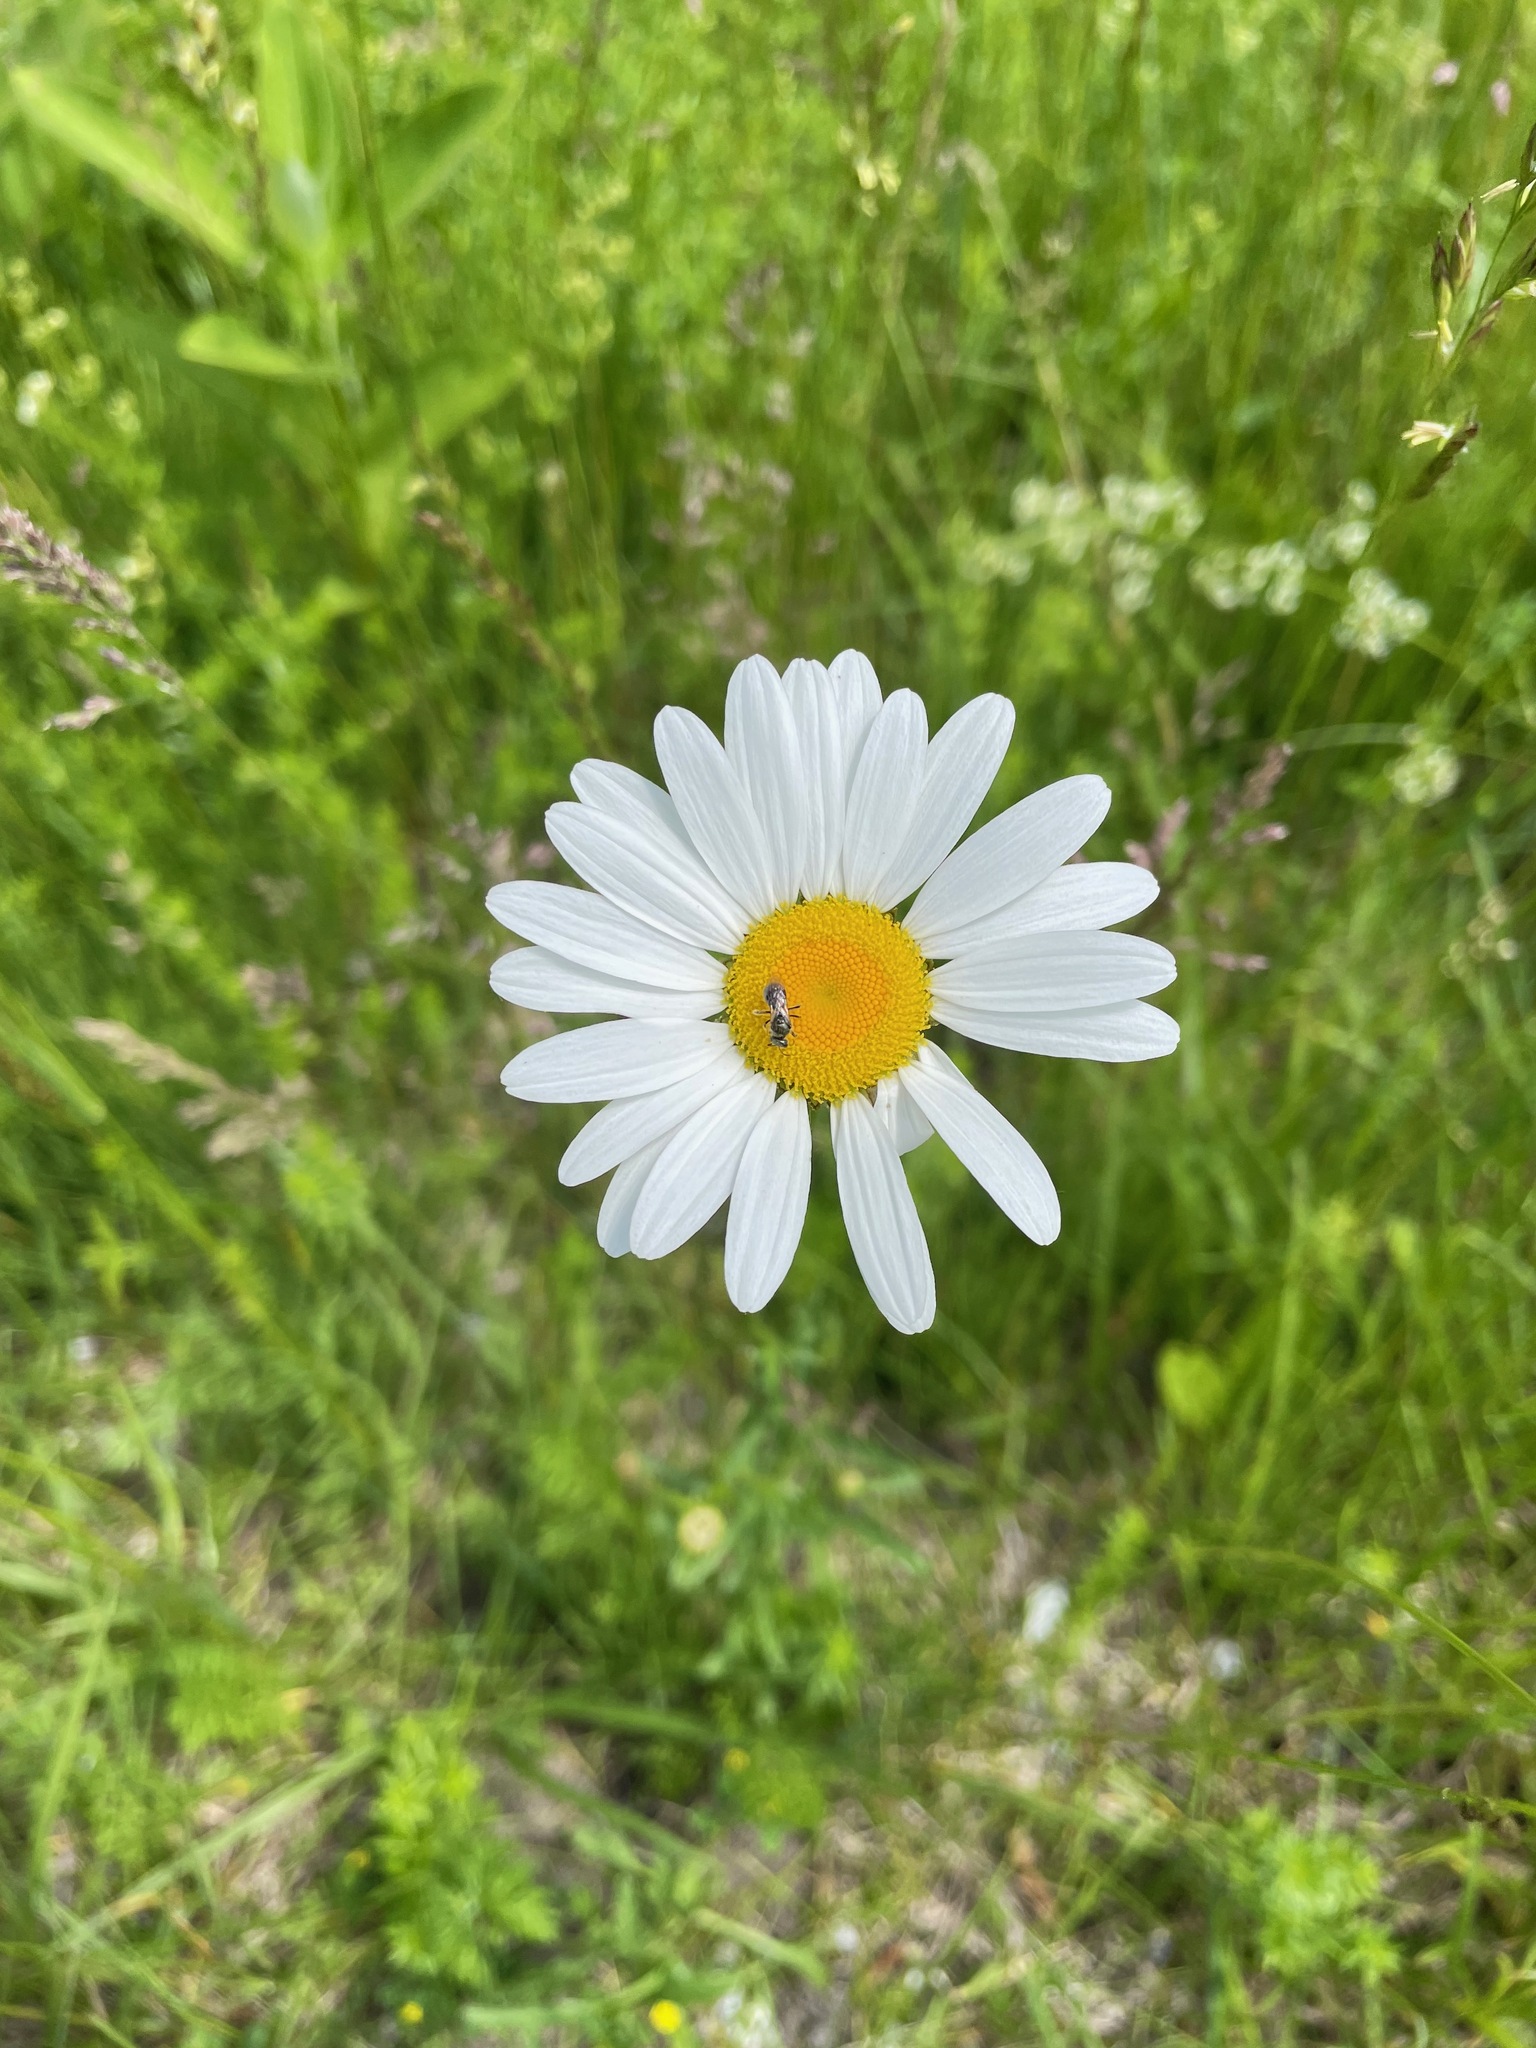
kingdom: Plantae
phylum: Tracheophyta
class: Magnoliopsida
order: Asterales
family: Asteraceae
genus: Leucanthemum
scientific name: Leucanthemum vulgare
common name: Oxeye daisy
